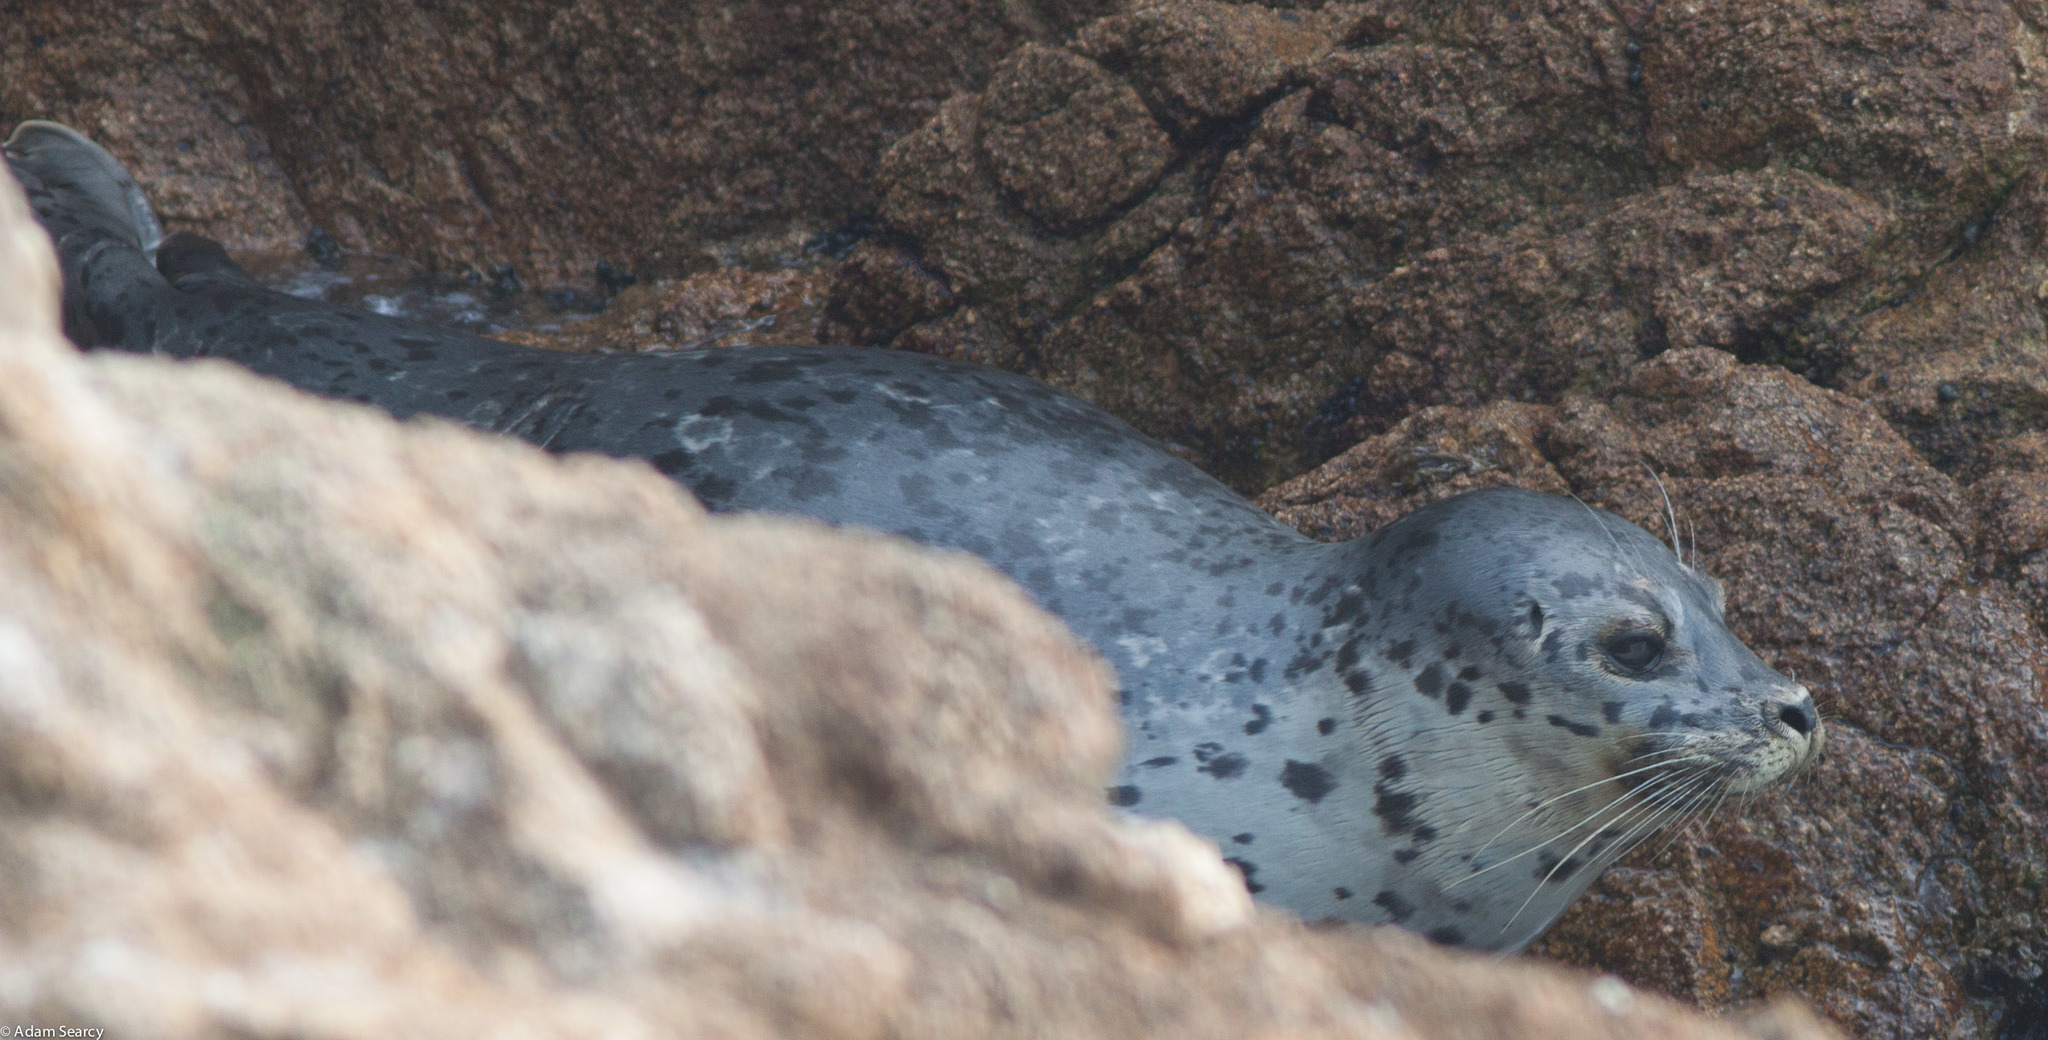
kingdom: Animalia
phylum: Chordata
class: Mammalia
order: Carnivora
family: Phocidae
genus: Phoca
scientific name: Phoca vitulina
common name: Harbor seal
